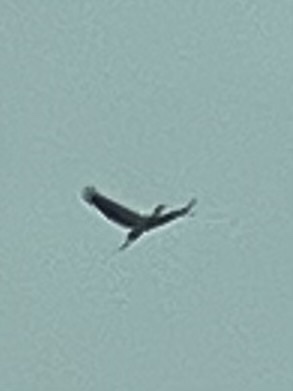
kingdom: Animalia
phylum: Chordata
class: Aves
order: Ciconiiformes
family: Ciconiidae
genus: Mycteria
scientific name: Mycteria americana
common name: Wood stork
